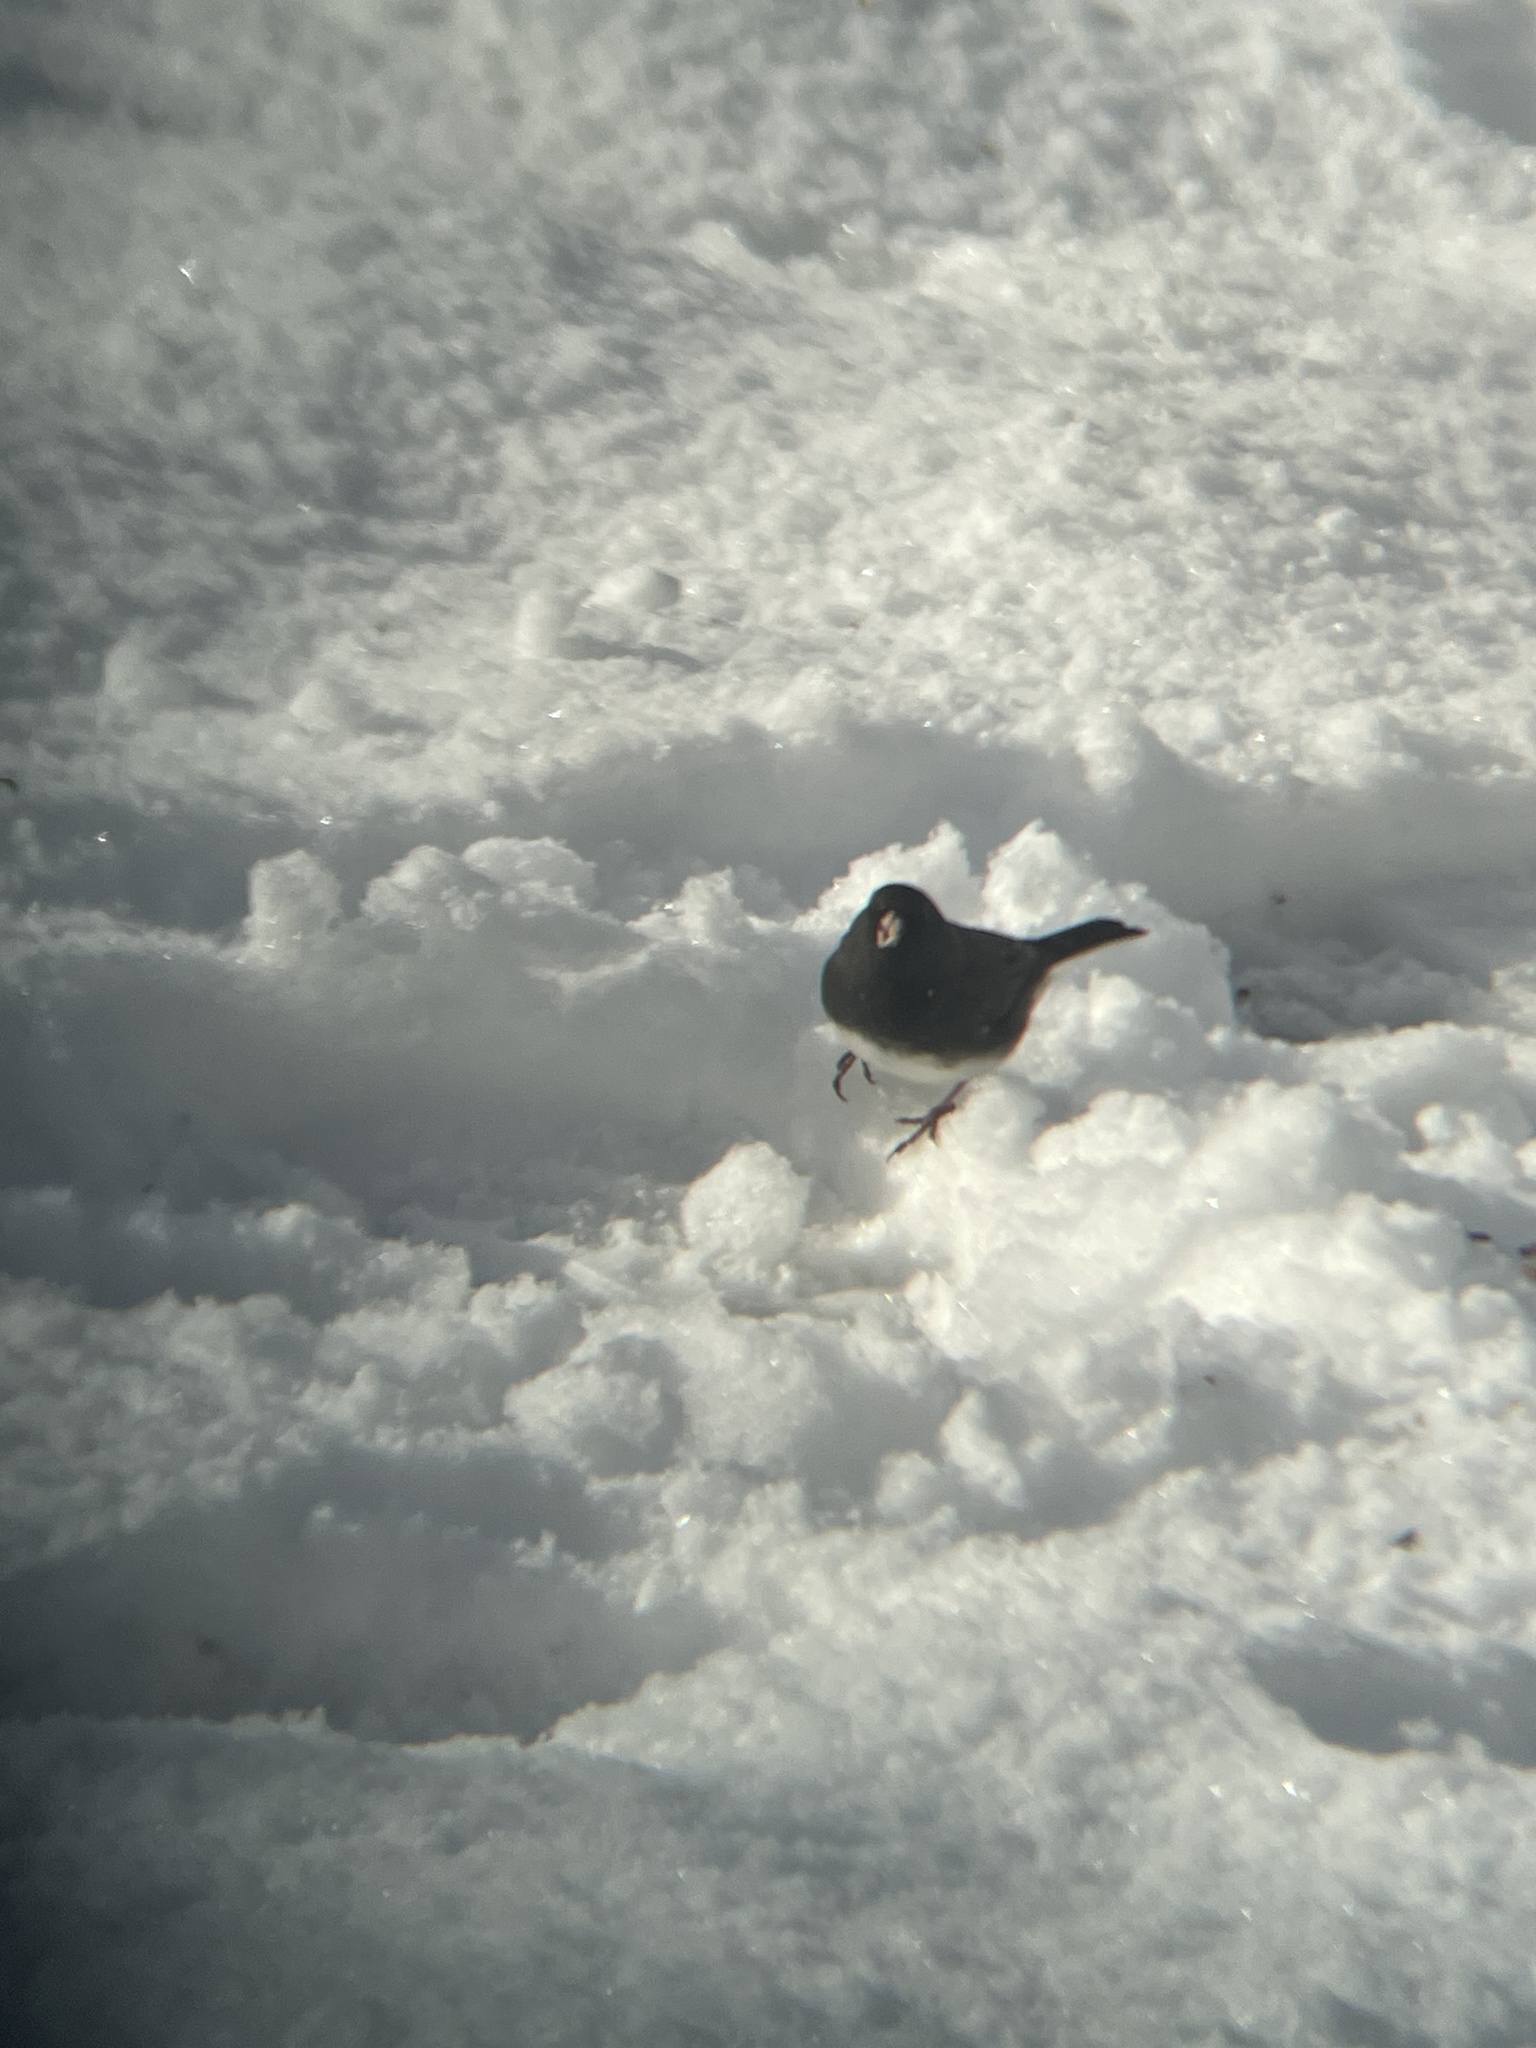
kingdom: Animalia
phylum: Chordata
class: Aves
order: Passeriformes
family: Passerellidae
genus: Junco
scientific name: Junco hyemalis
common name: Dark-eyed junco
